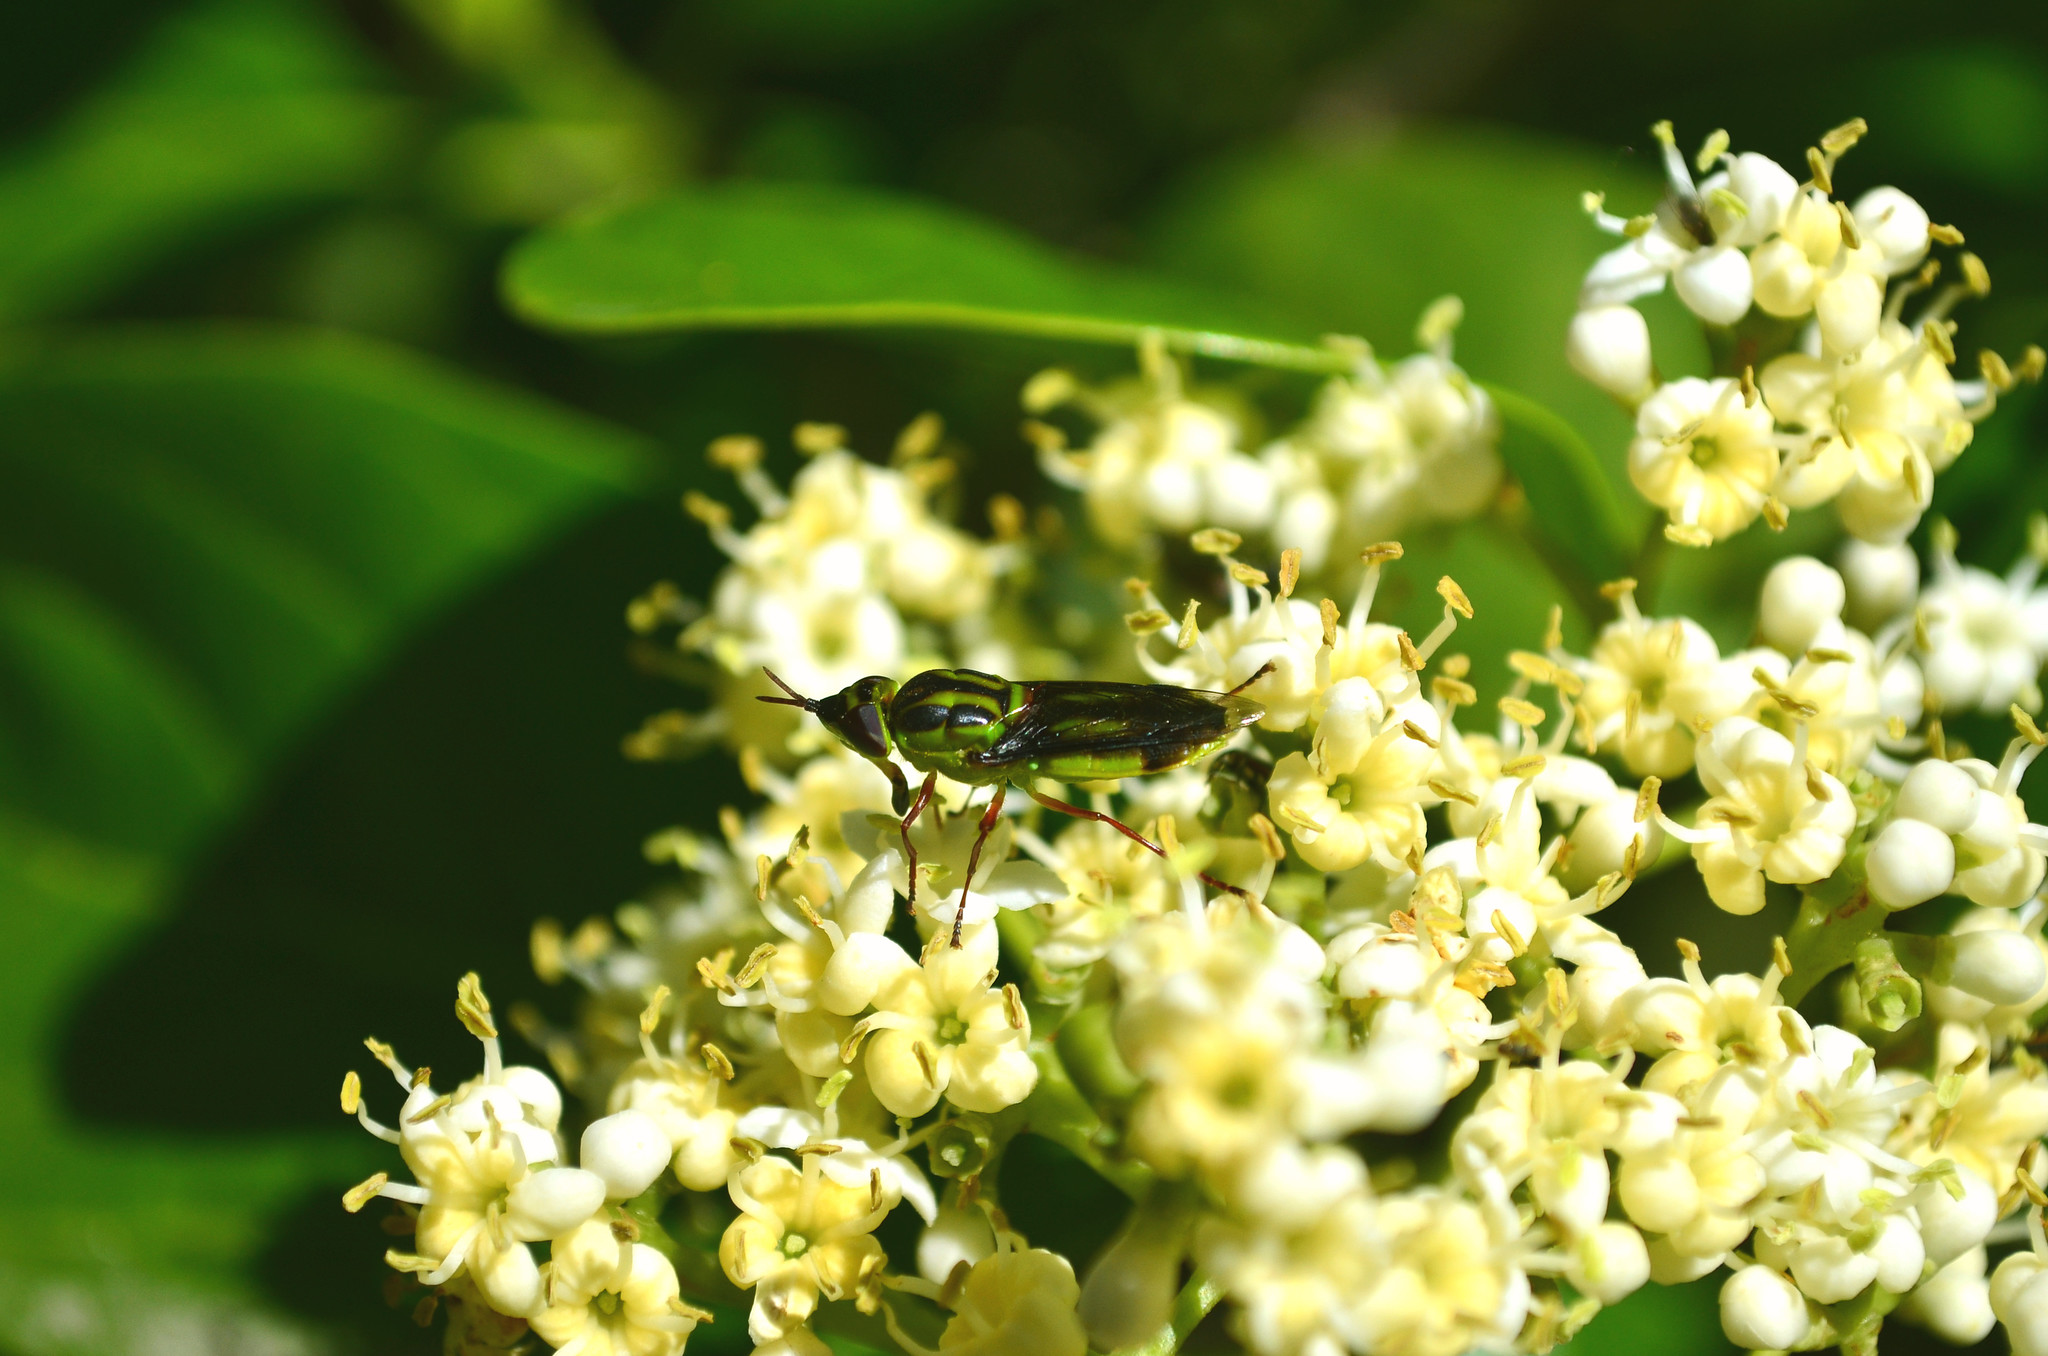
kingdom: Animalia
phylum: Arthropoda
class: Insecta
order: Diptera
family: Stratiomyidae
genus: Hedriodiscus
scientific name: Hedriodiscus pulcher
